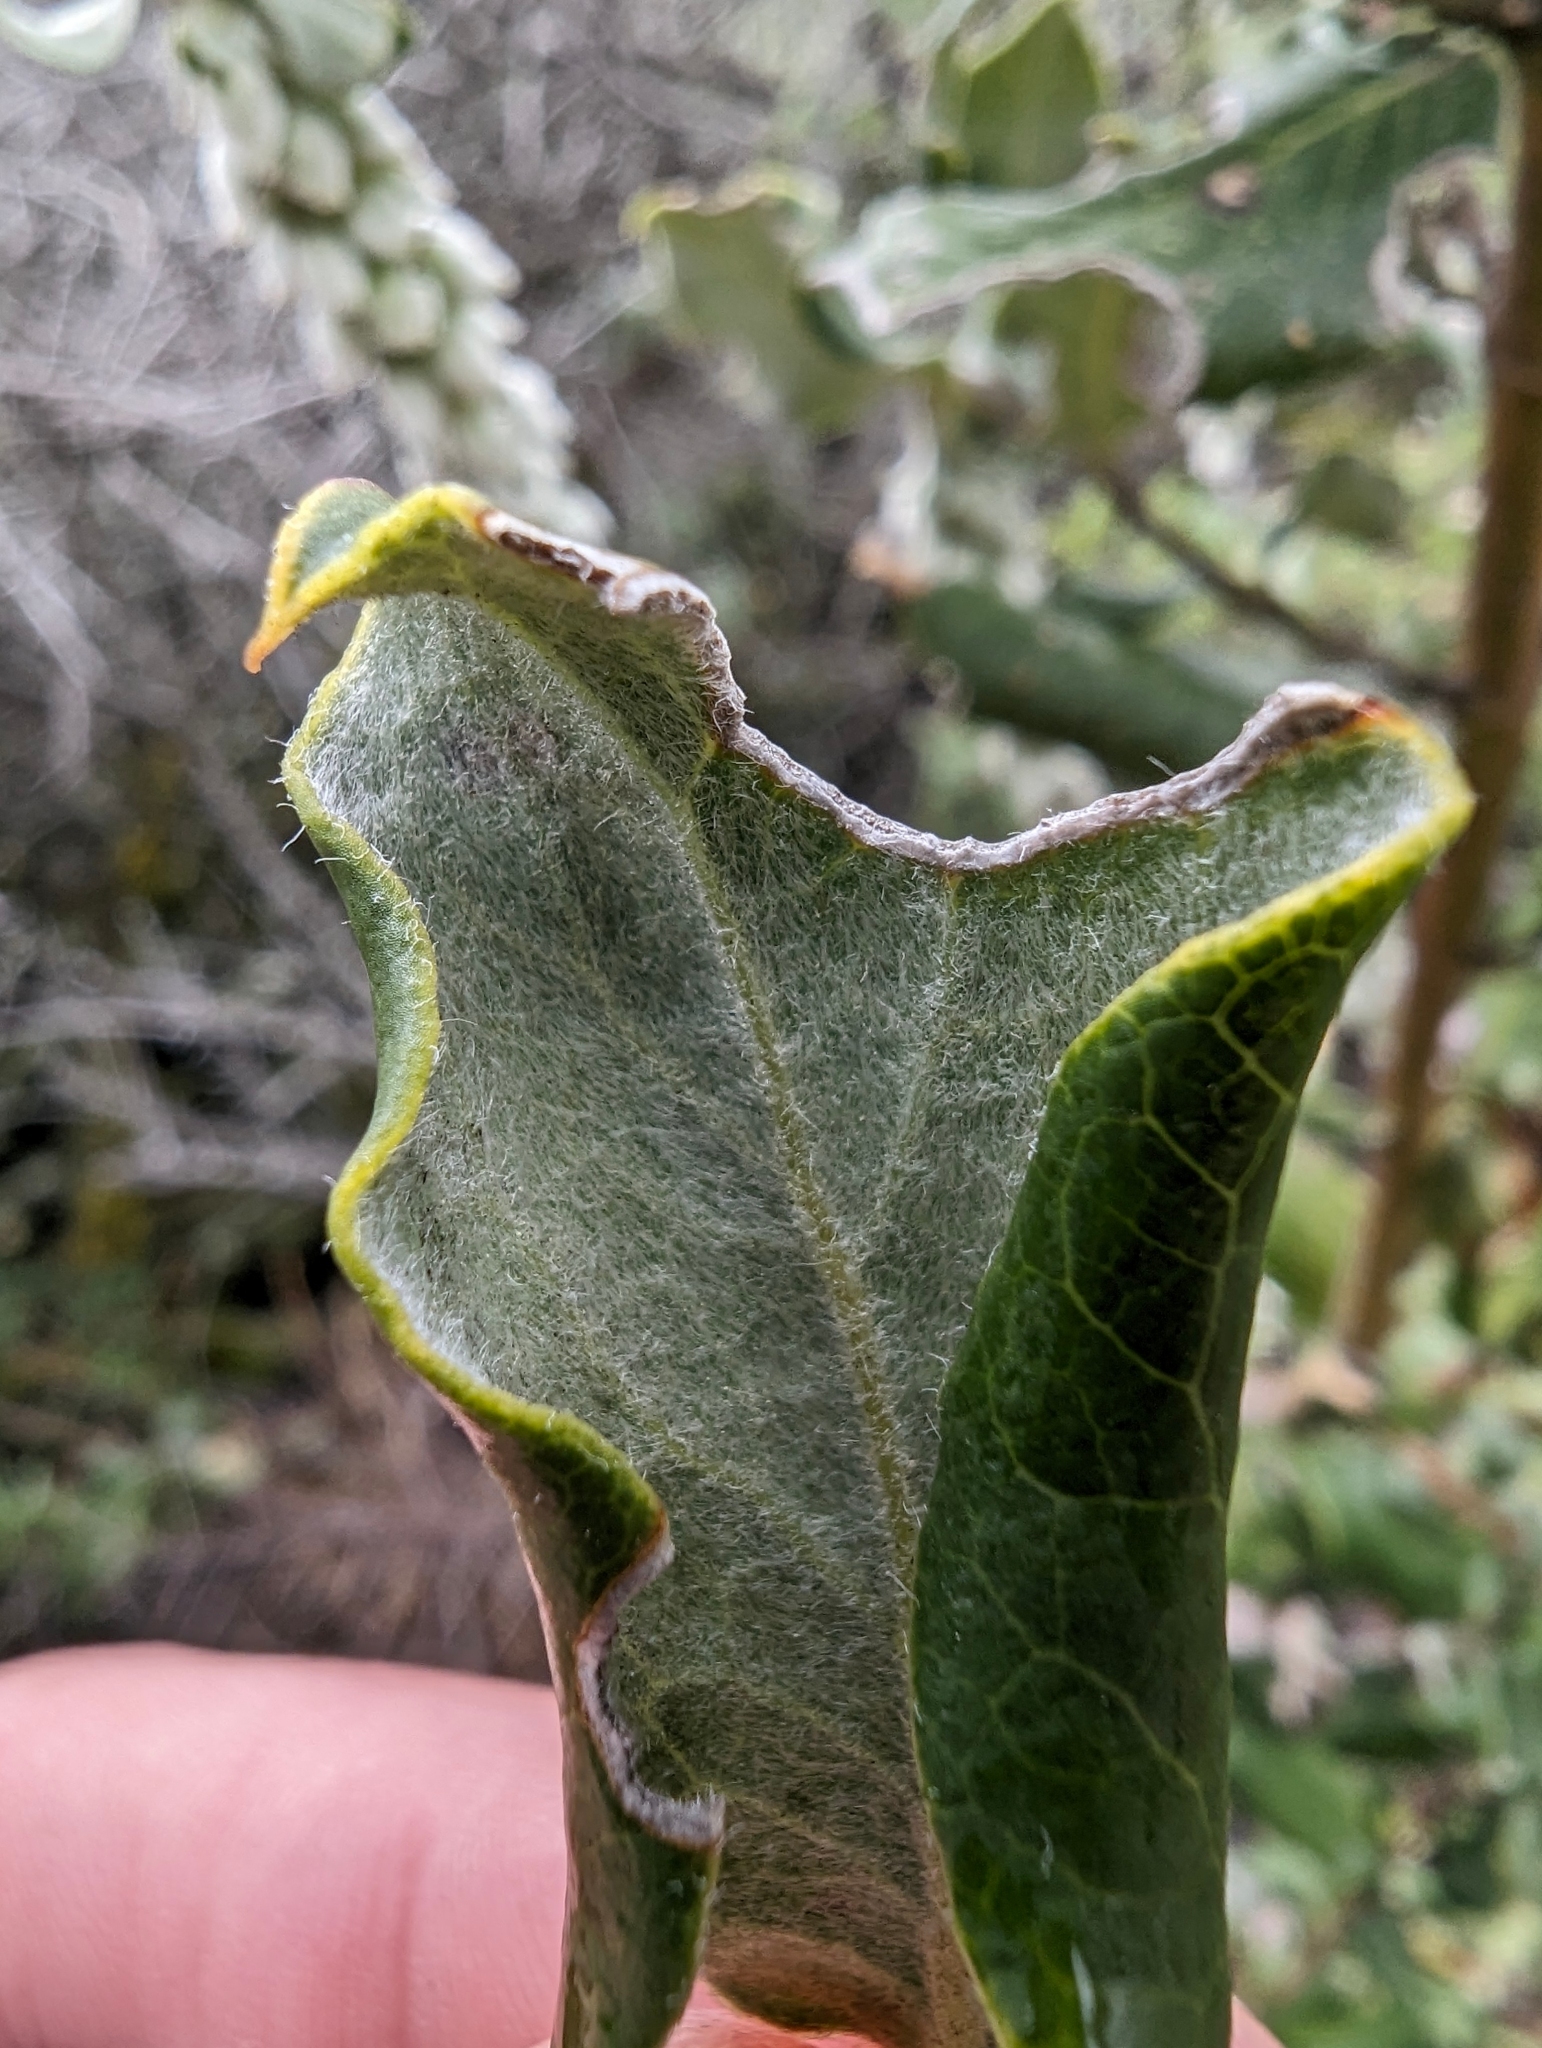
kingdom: Plantae
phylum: Tracheophyta
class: Magnoliopsida
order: Garryales
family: Garryaceae
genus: Garrya
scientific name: Garrya elliptica
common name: Silk-tassel
